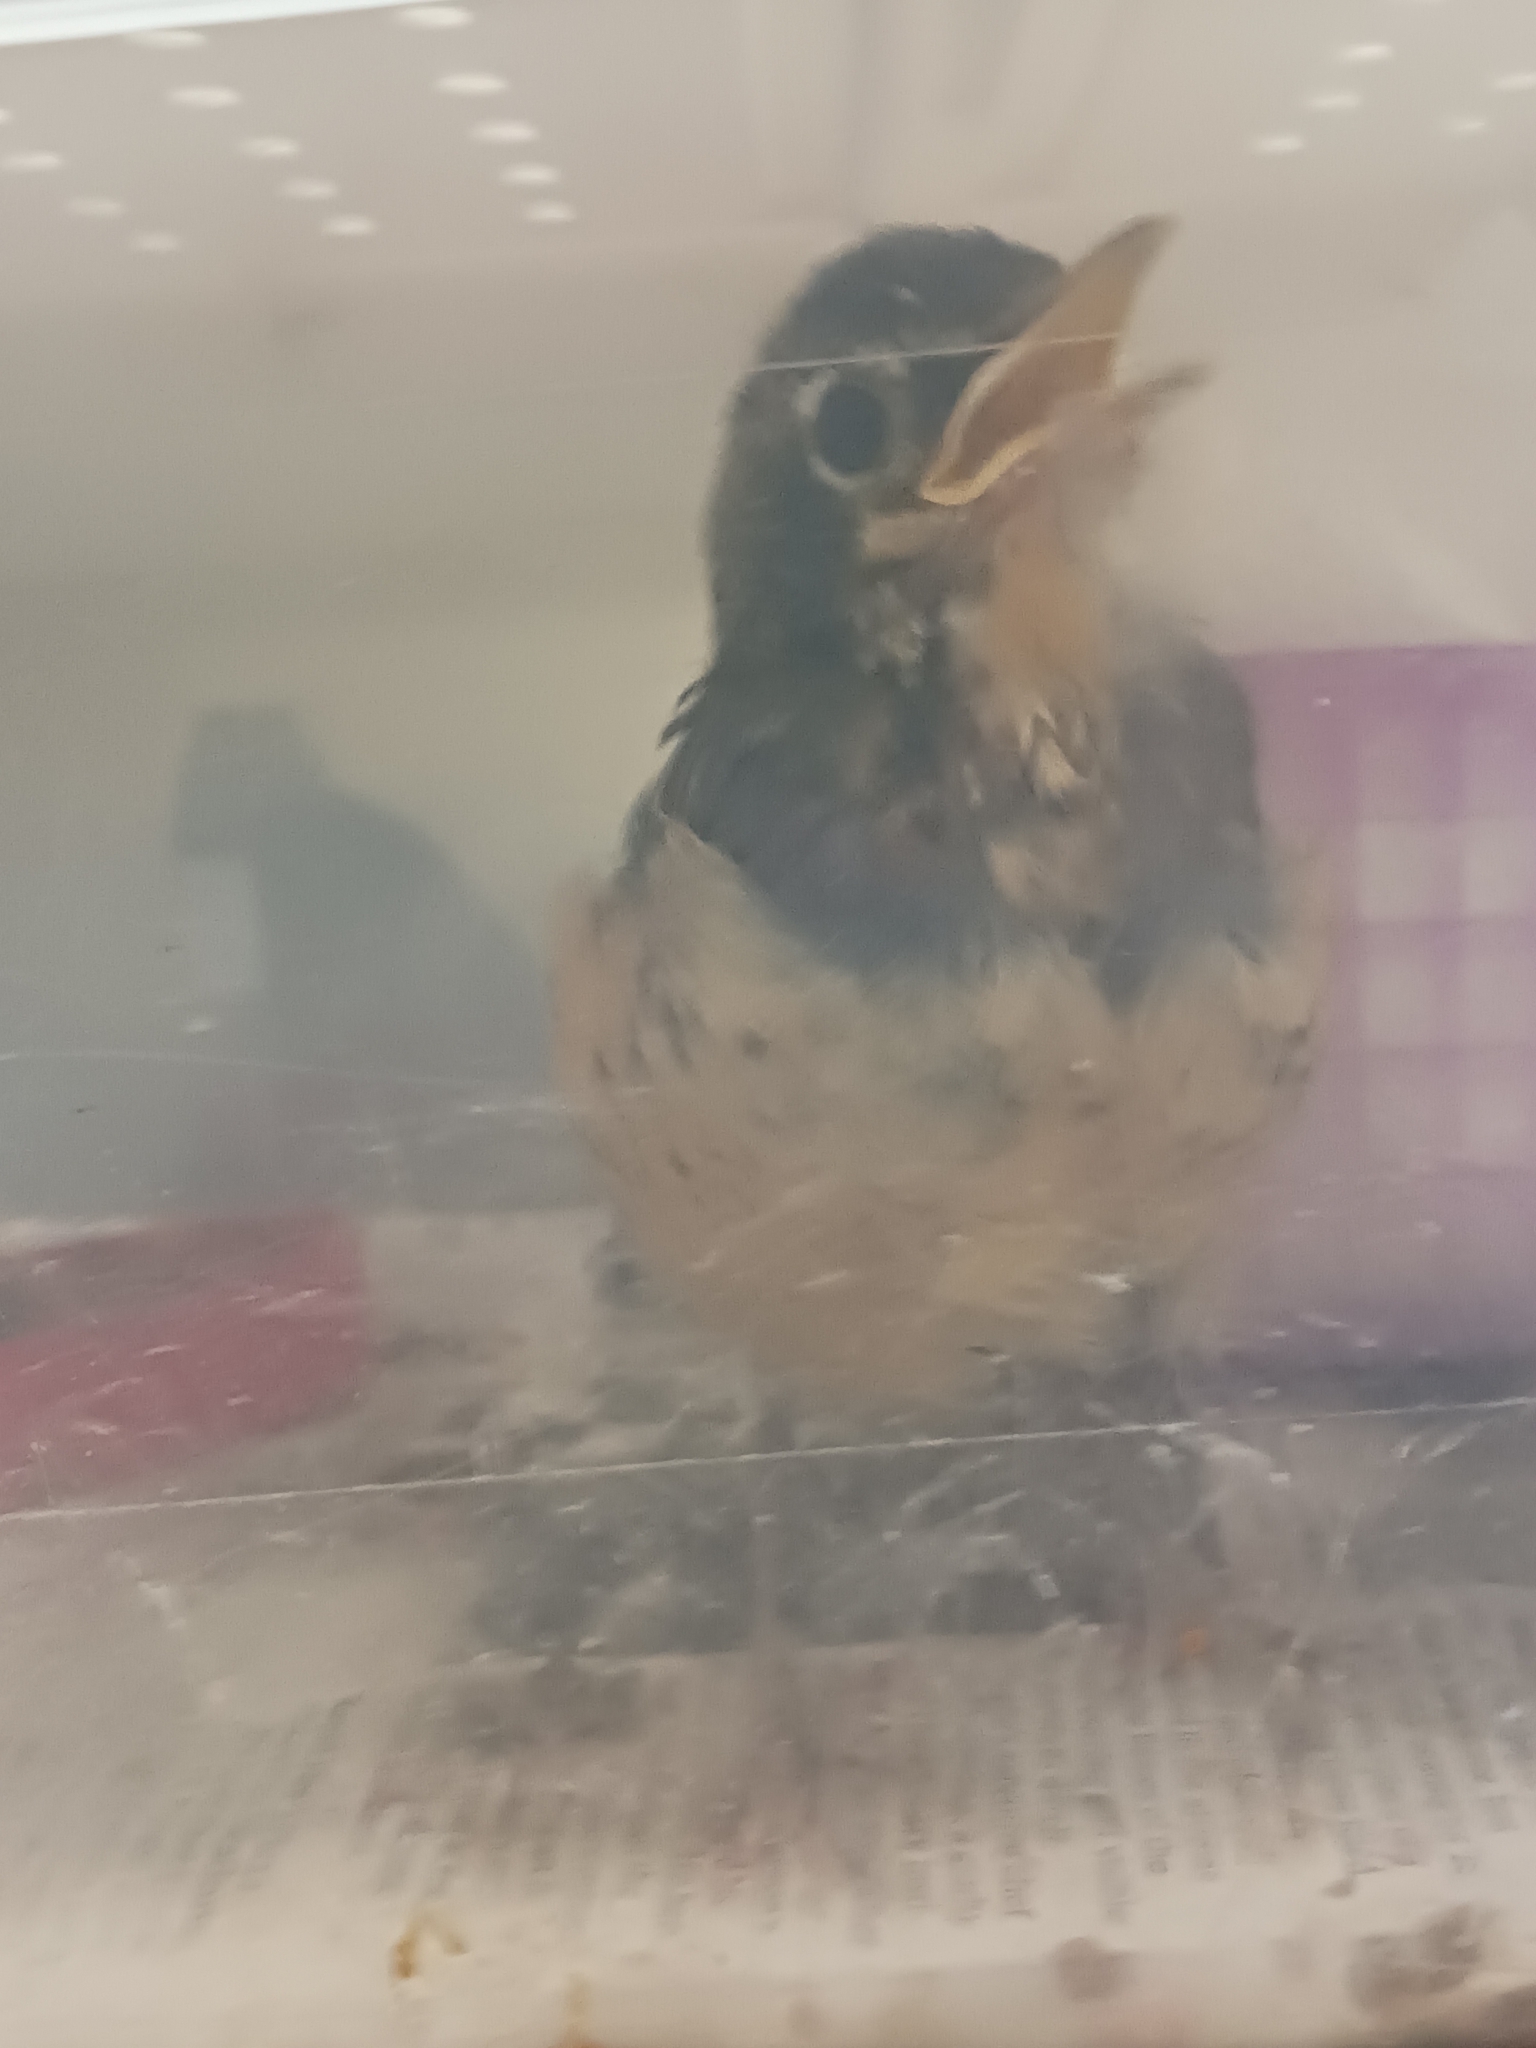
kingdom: Animalia
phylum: Chordata
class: Aves
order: Passeriformes
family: Turdidae
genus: Turdus
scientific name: Turdus migratorius
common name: American robin
